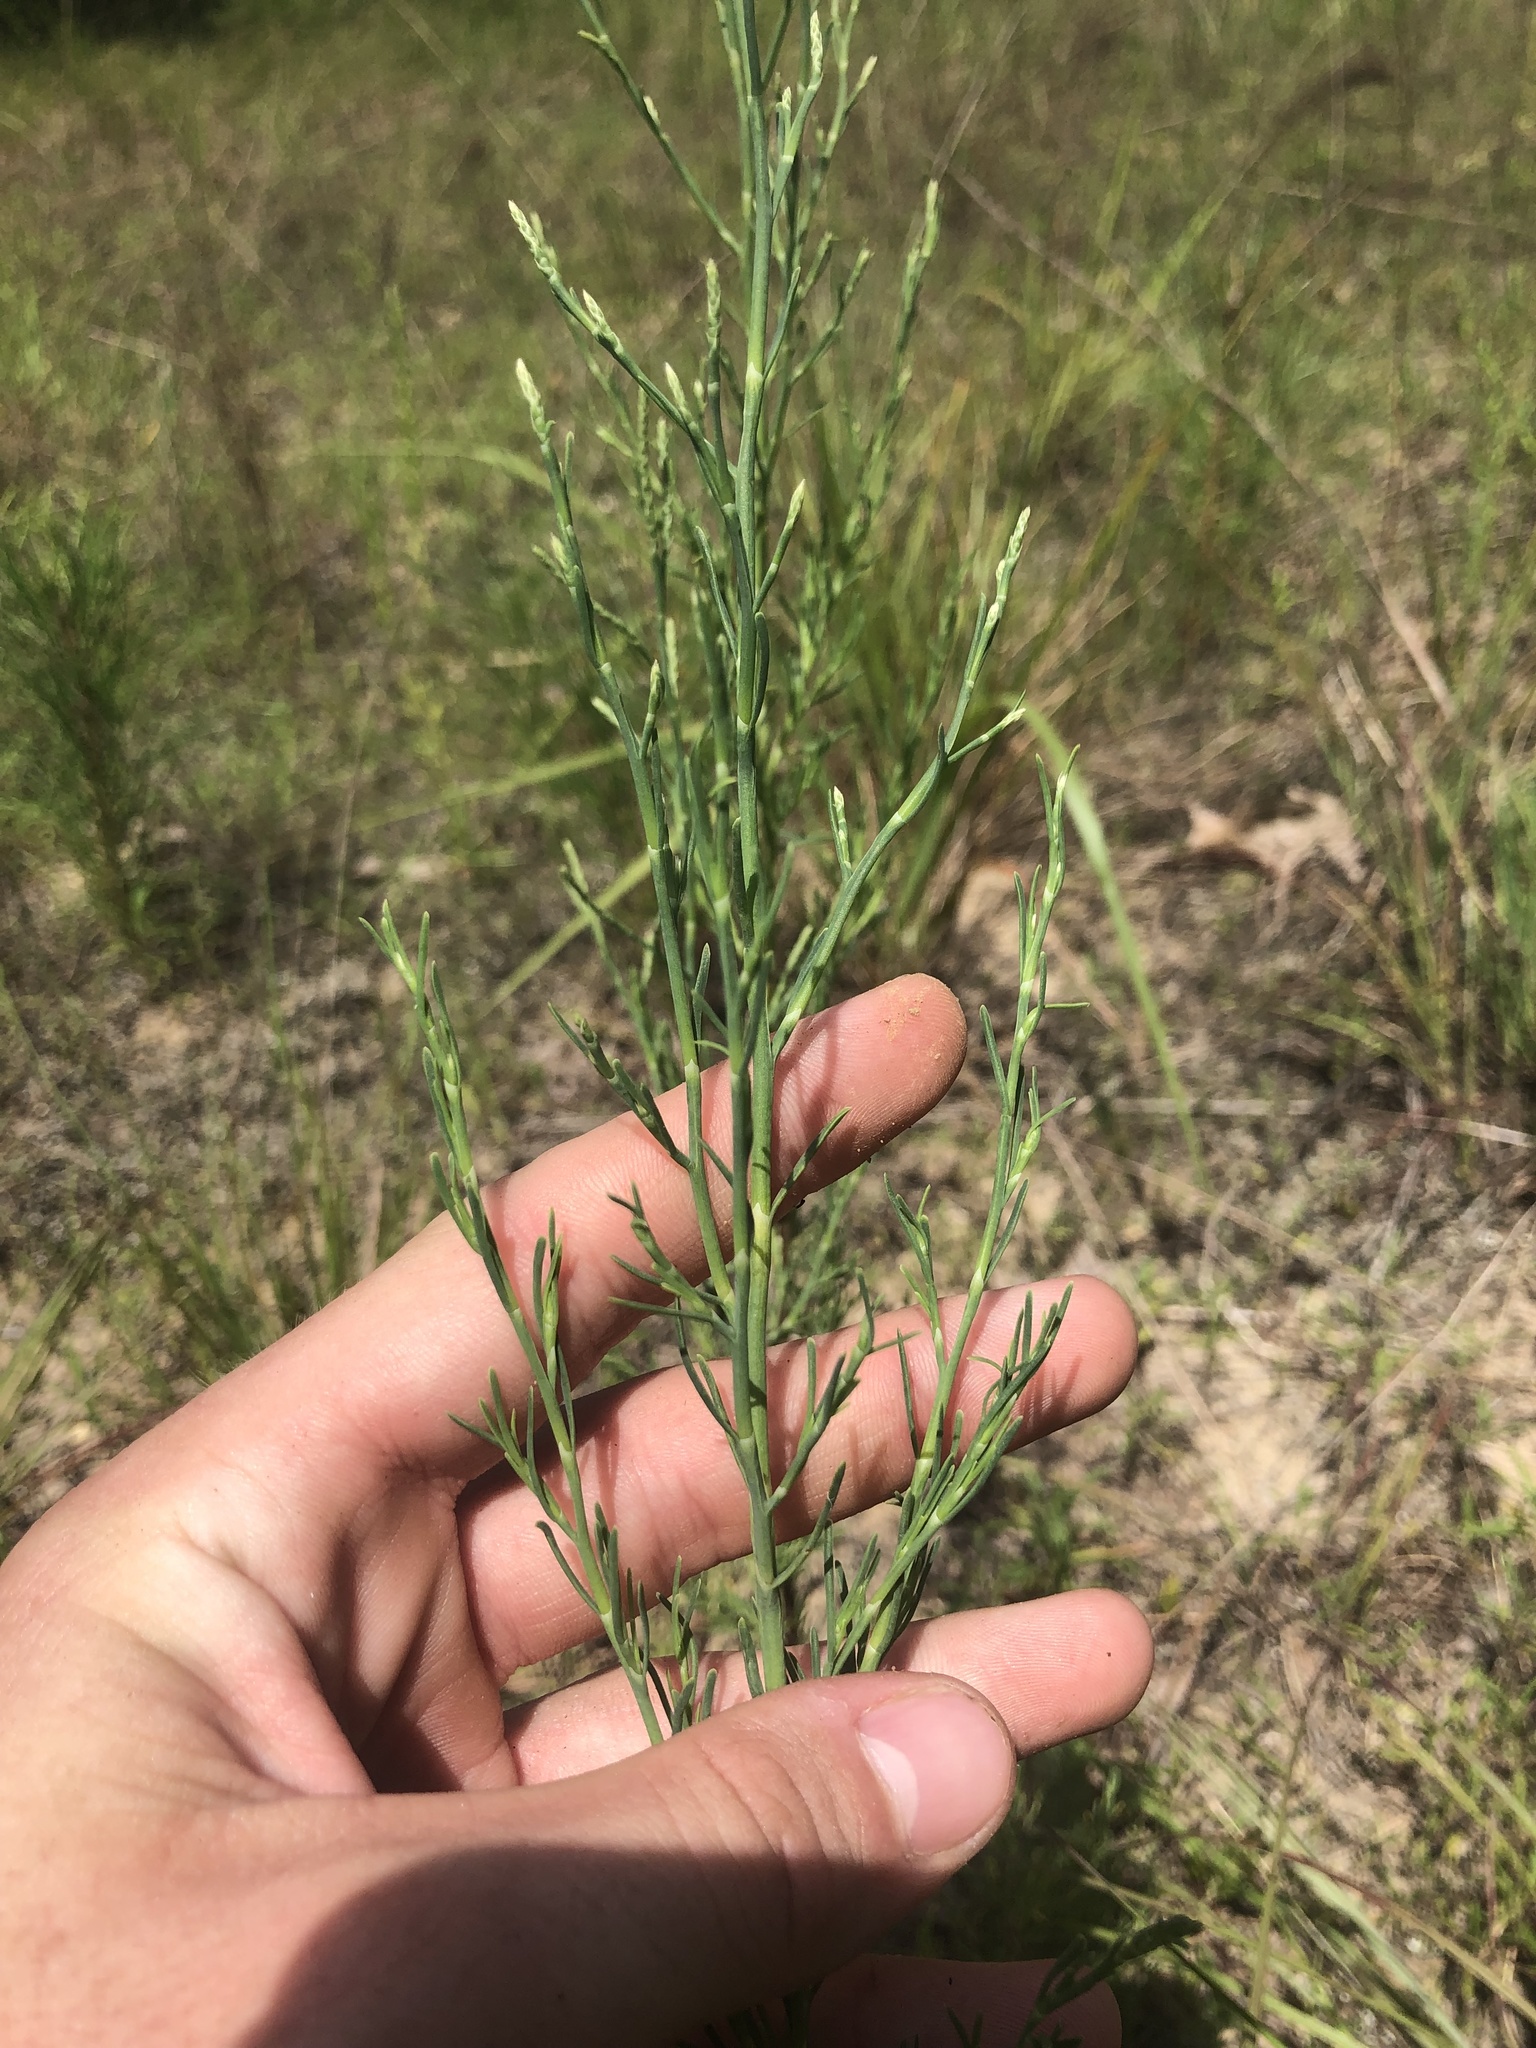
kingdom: Plantae
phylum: Tracheophyta
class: Magnoliopsida
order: Caryophyllales
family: Polygonaceae
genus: Polygonella
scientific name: Polygonella americana
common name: Southern jointweed
